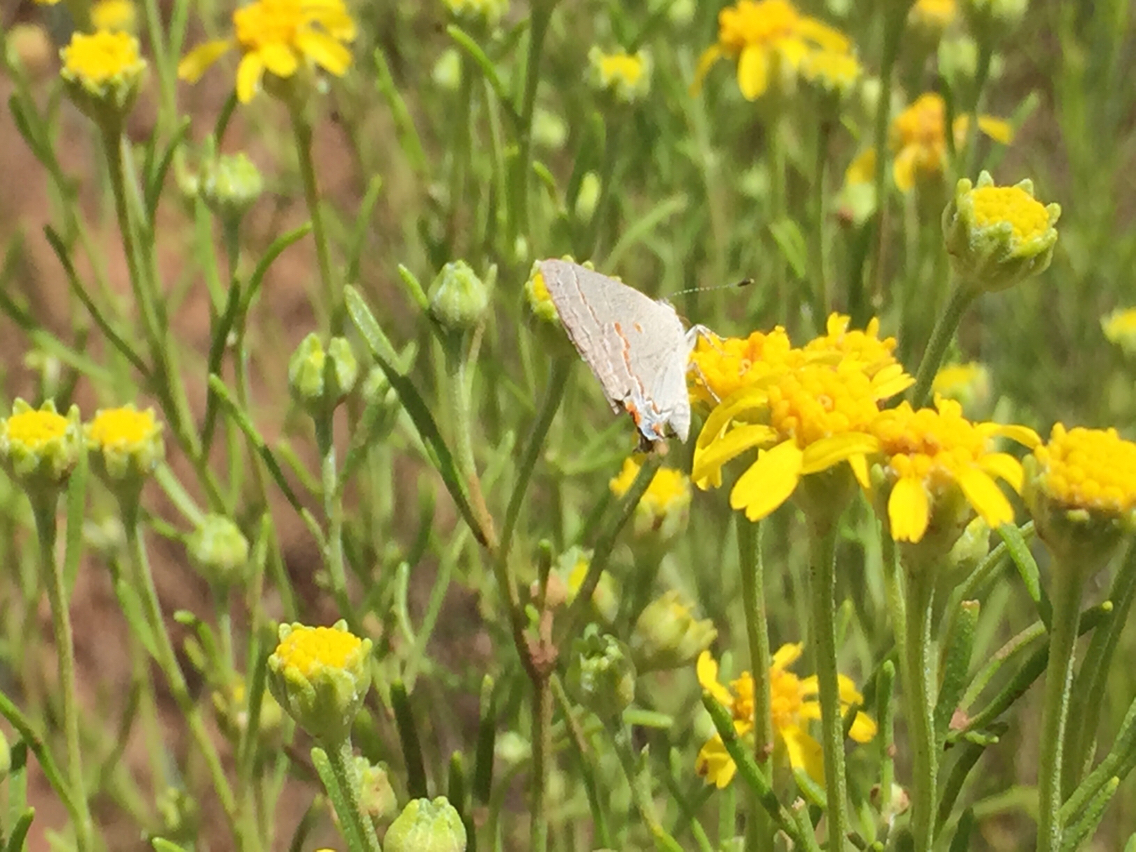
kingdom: Animalia
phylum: Arthropoda
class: Insecta
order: Lepidoptera
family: Lycaenidae
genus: Ministrymon
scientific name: Ministrymon leda
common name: Leda ministreak
